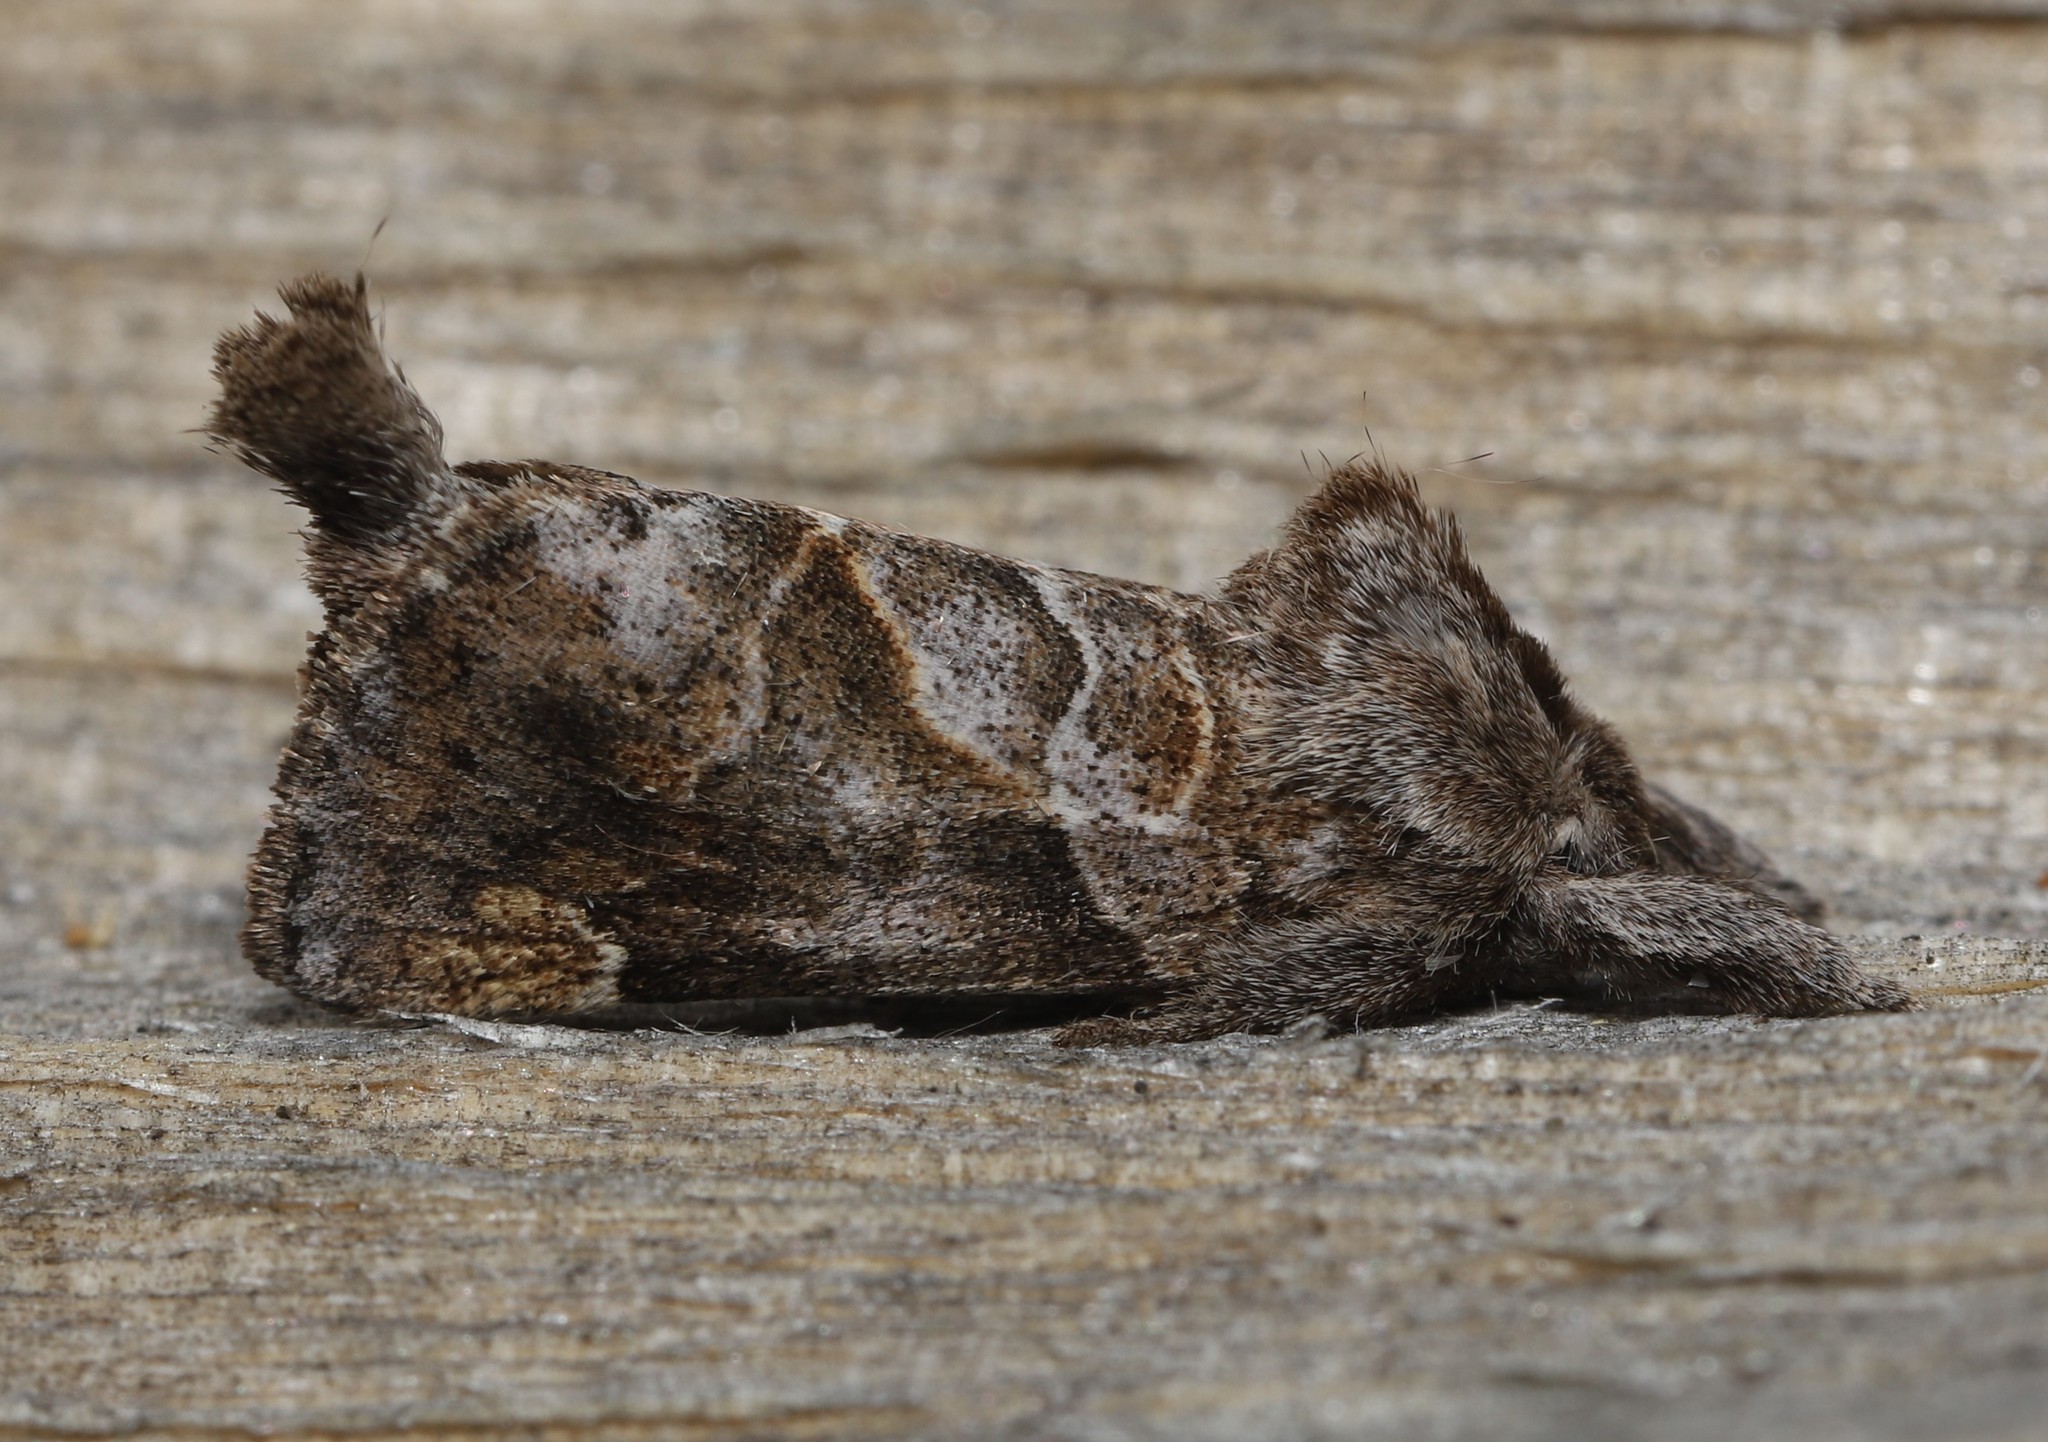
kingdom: Animalia
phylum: Arthropoda
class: Insecta
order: Lepidoptera
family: Notodontidae
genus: Clostera
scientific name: Clostera strigosa
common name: Striped chocolate-tip moth
